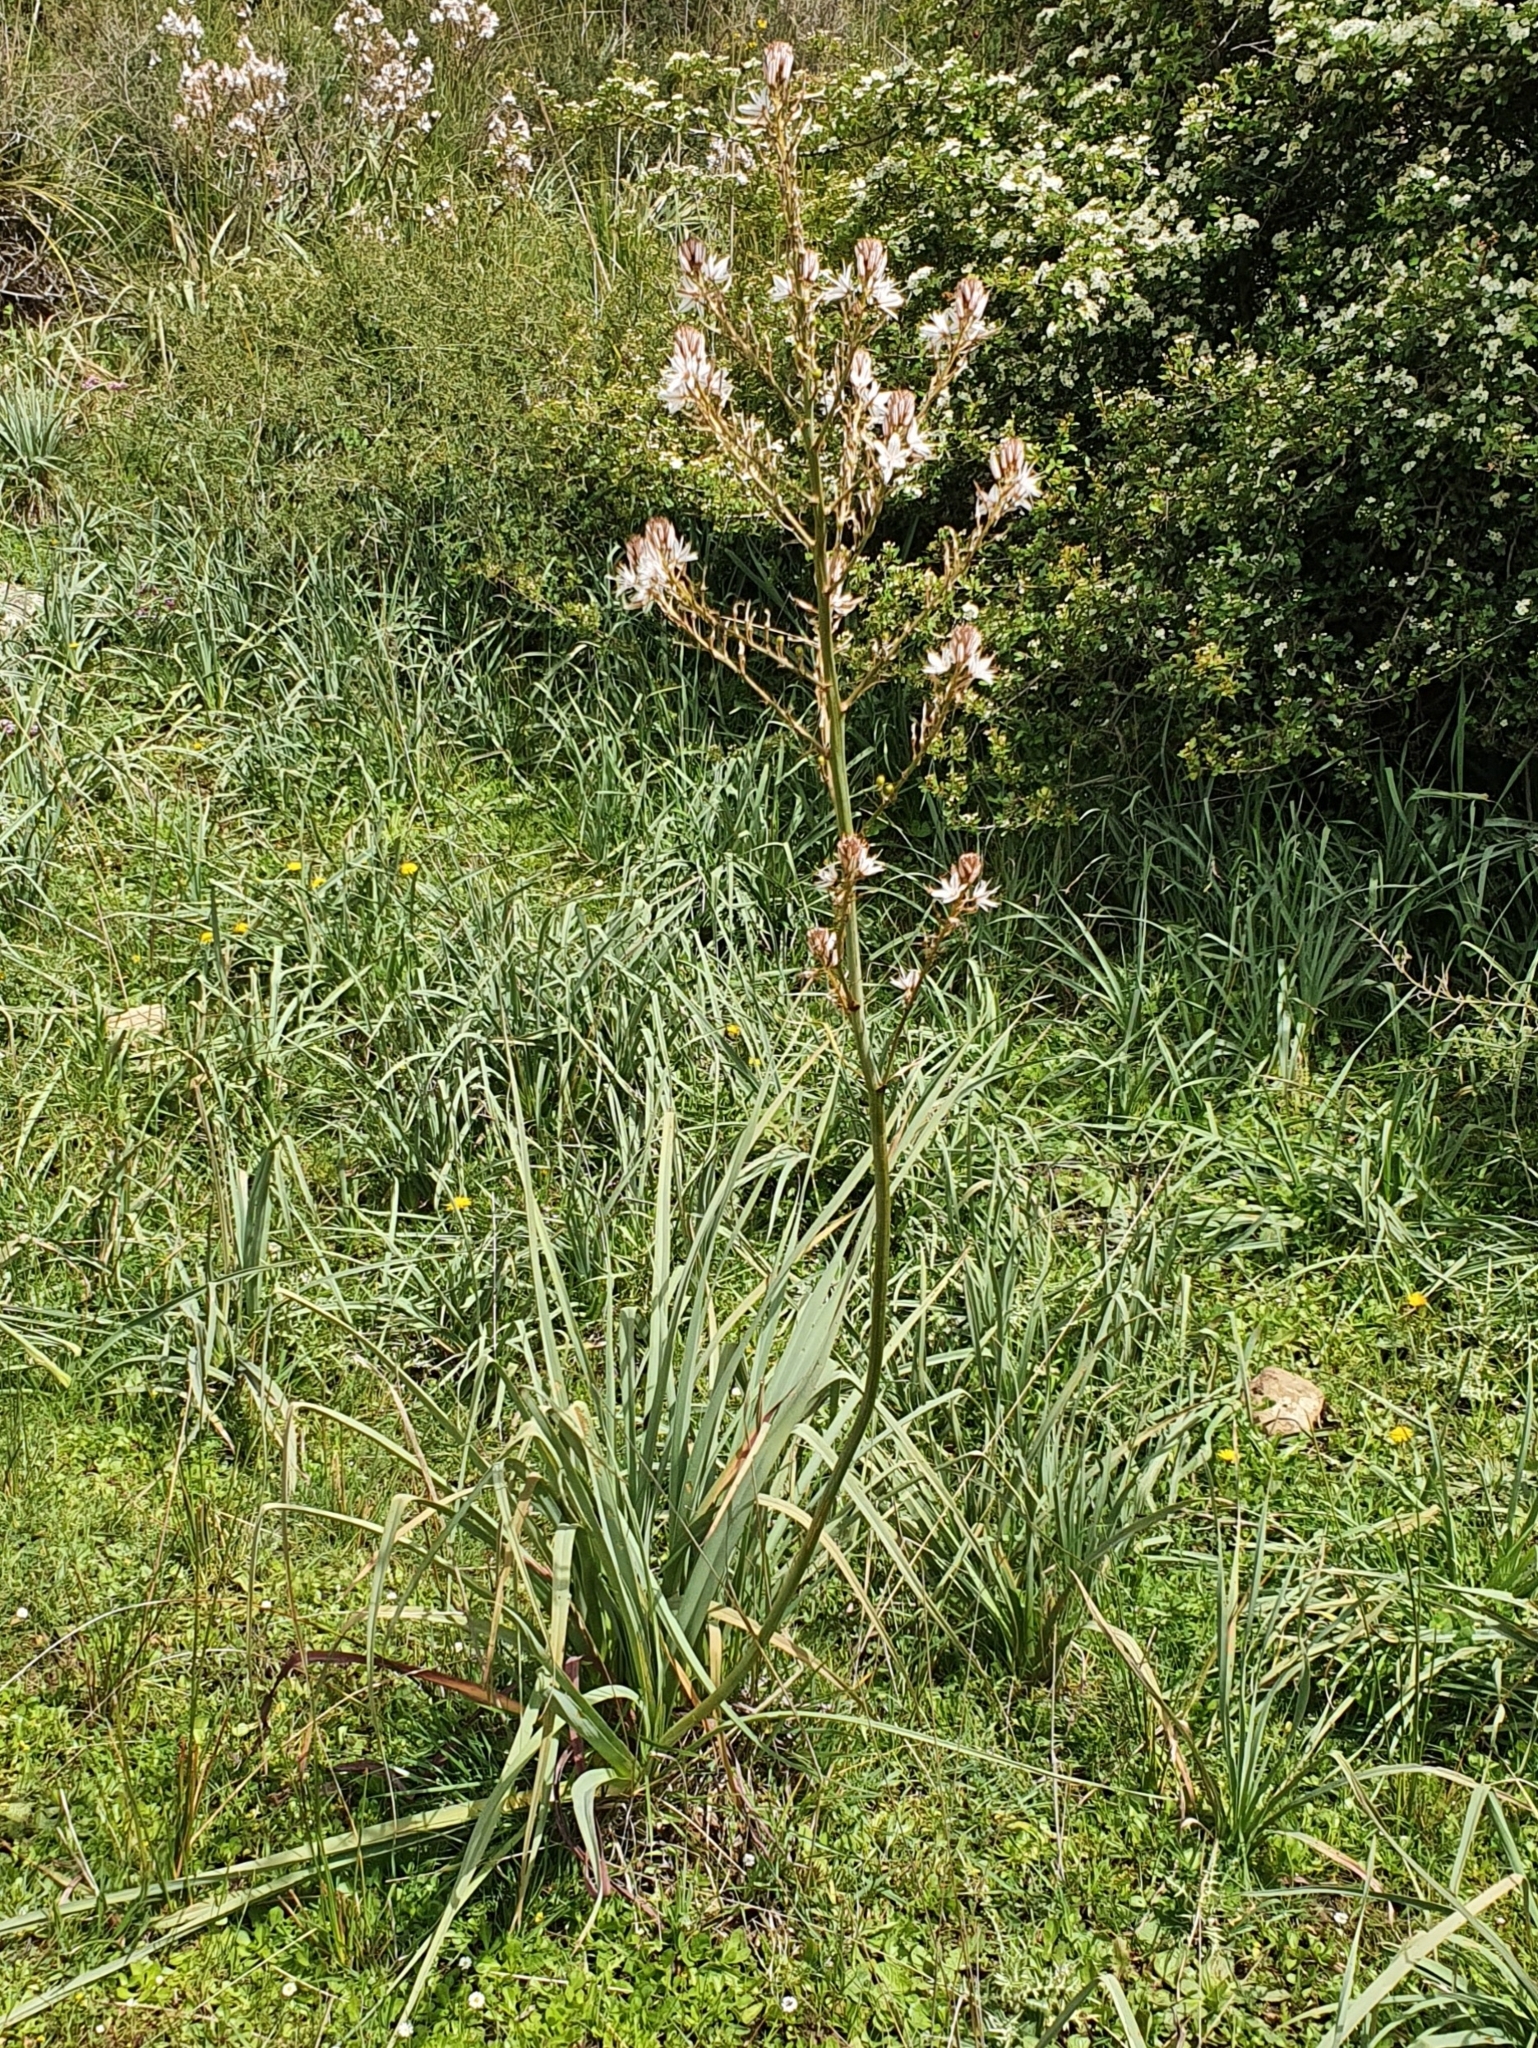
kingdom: Plantae
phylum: Tracheophyta
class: Liliopsida
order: Asparagales
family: Asphodelaceae
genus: Asphodelus
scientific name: Asphodelus ramosus
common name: Silverrod
